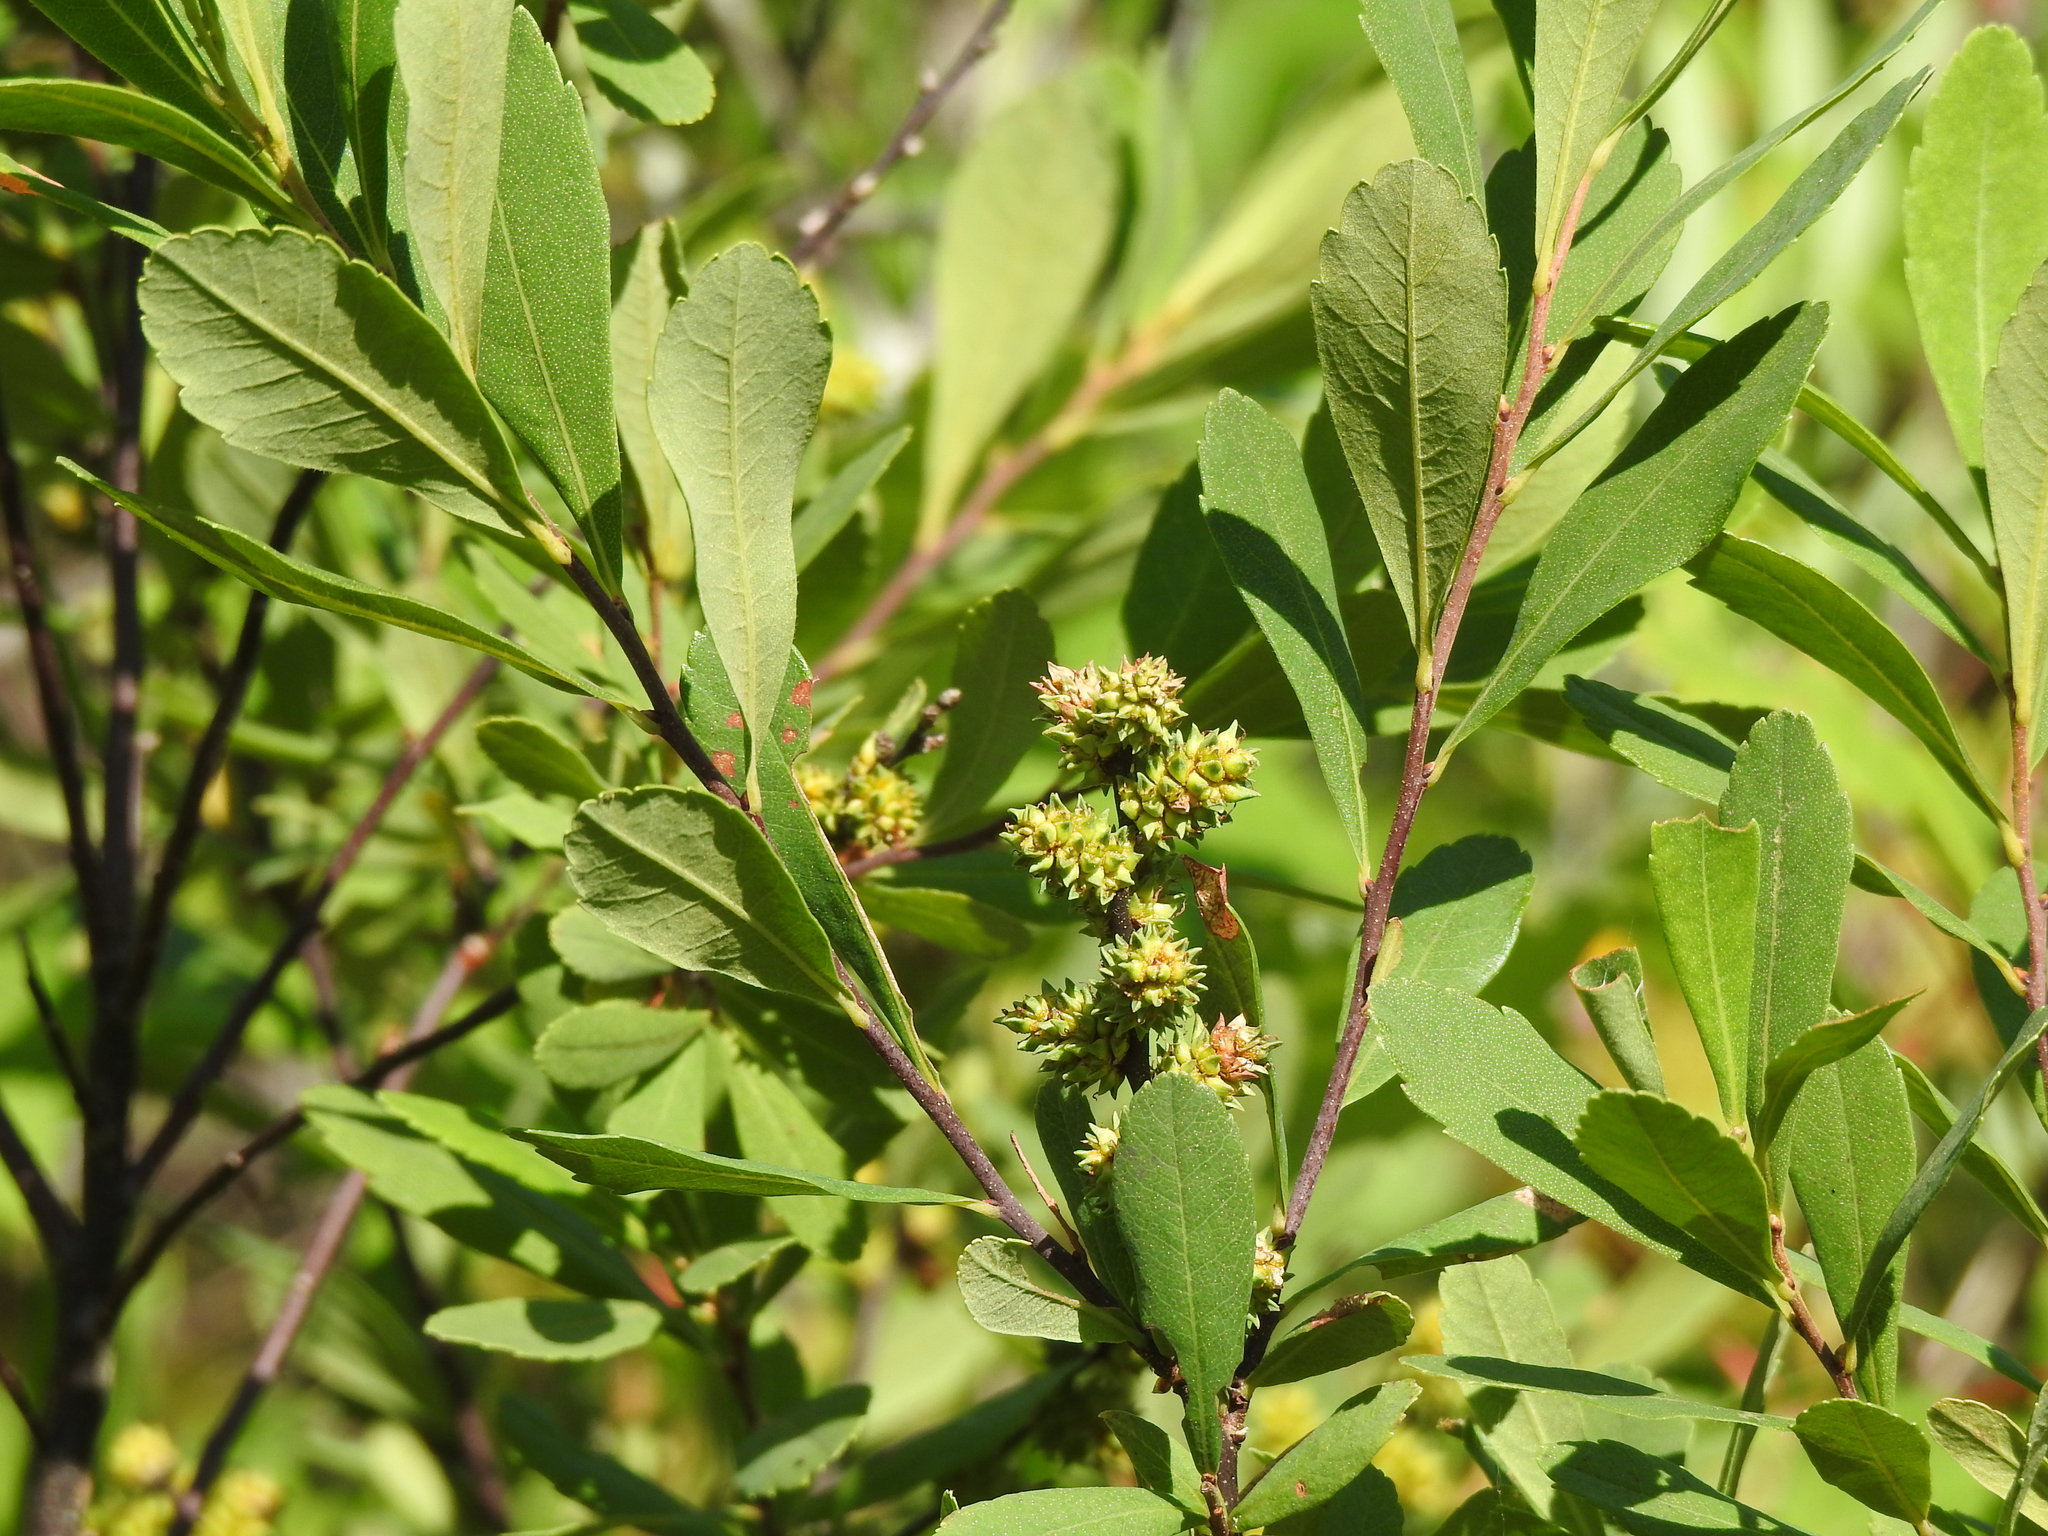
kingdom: Plantae
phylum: Tracheophyta
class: Magnoliopsida
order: Fagales
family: Myricaceae
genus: Myrica
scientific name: Myrica gale
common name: Sweet gale
